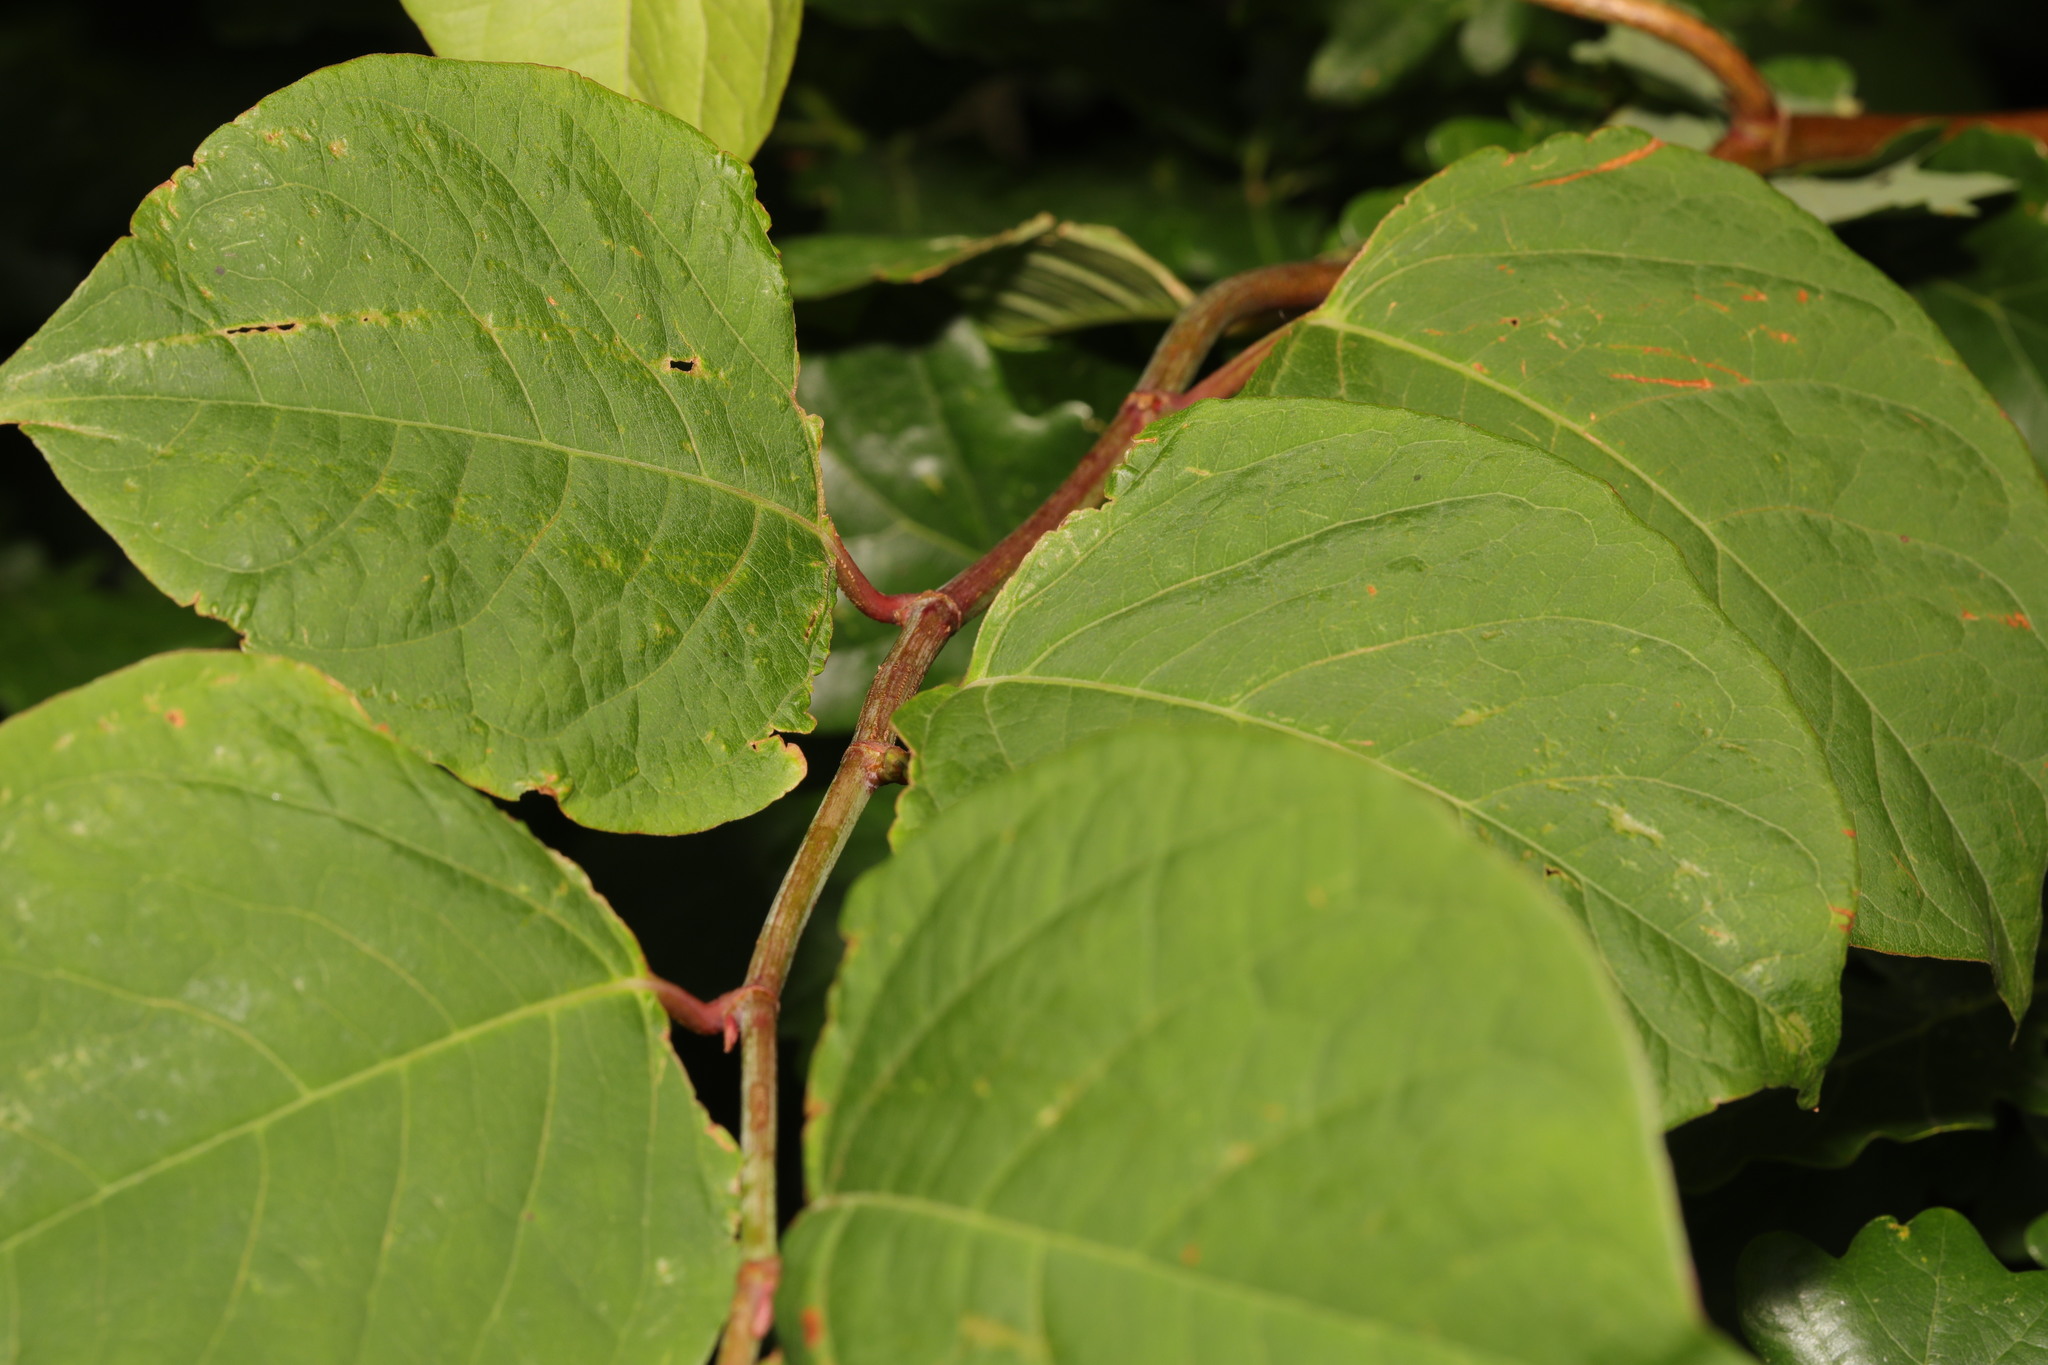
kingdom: Plantae
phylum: Tracheophyta
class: Magnoliopsida
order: Caryophyllales
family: Polygonaceae
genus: Reynoutria
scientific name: Reynoutria japonica
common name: Japanese knotweed
